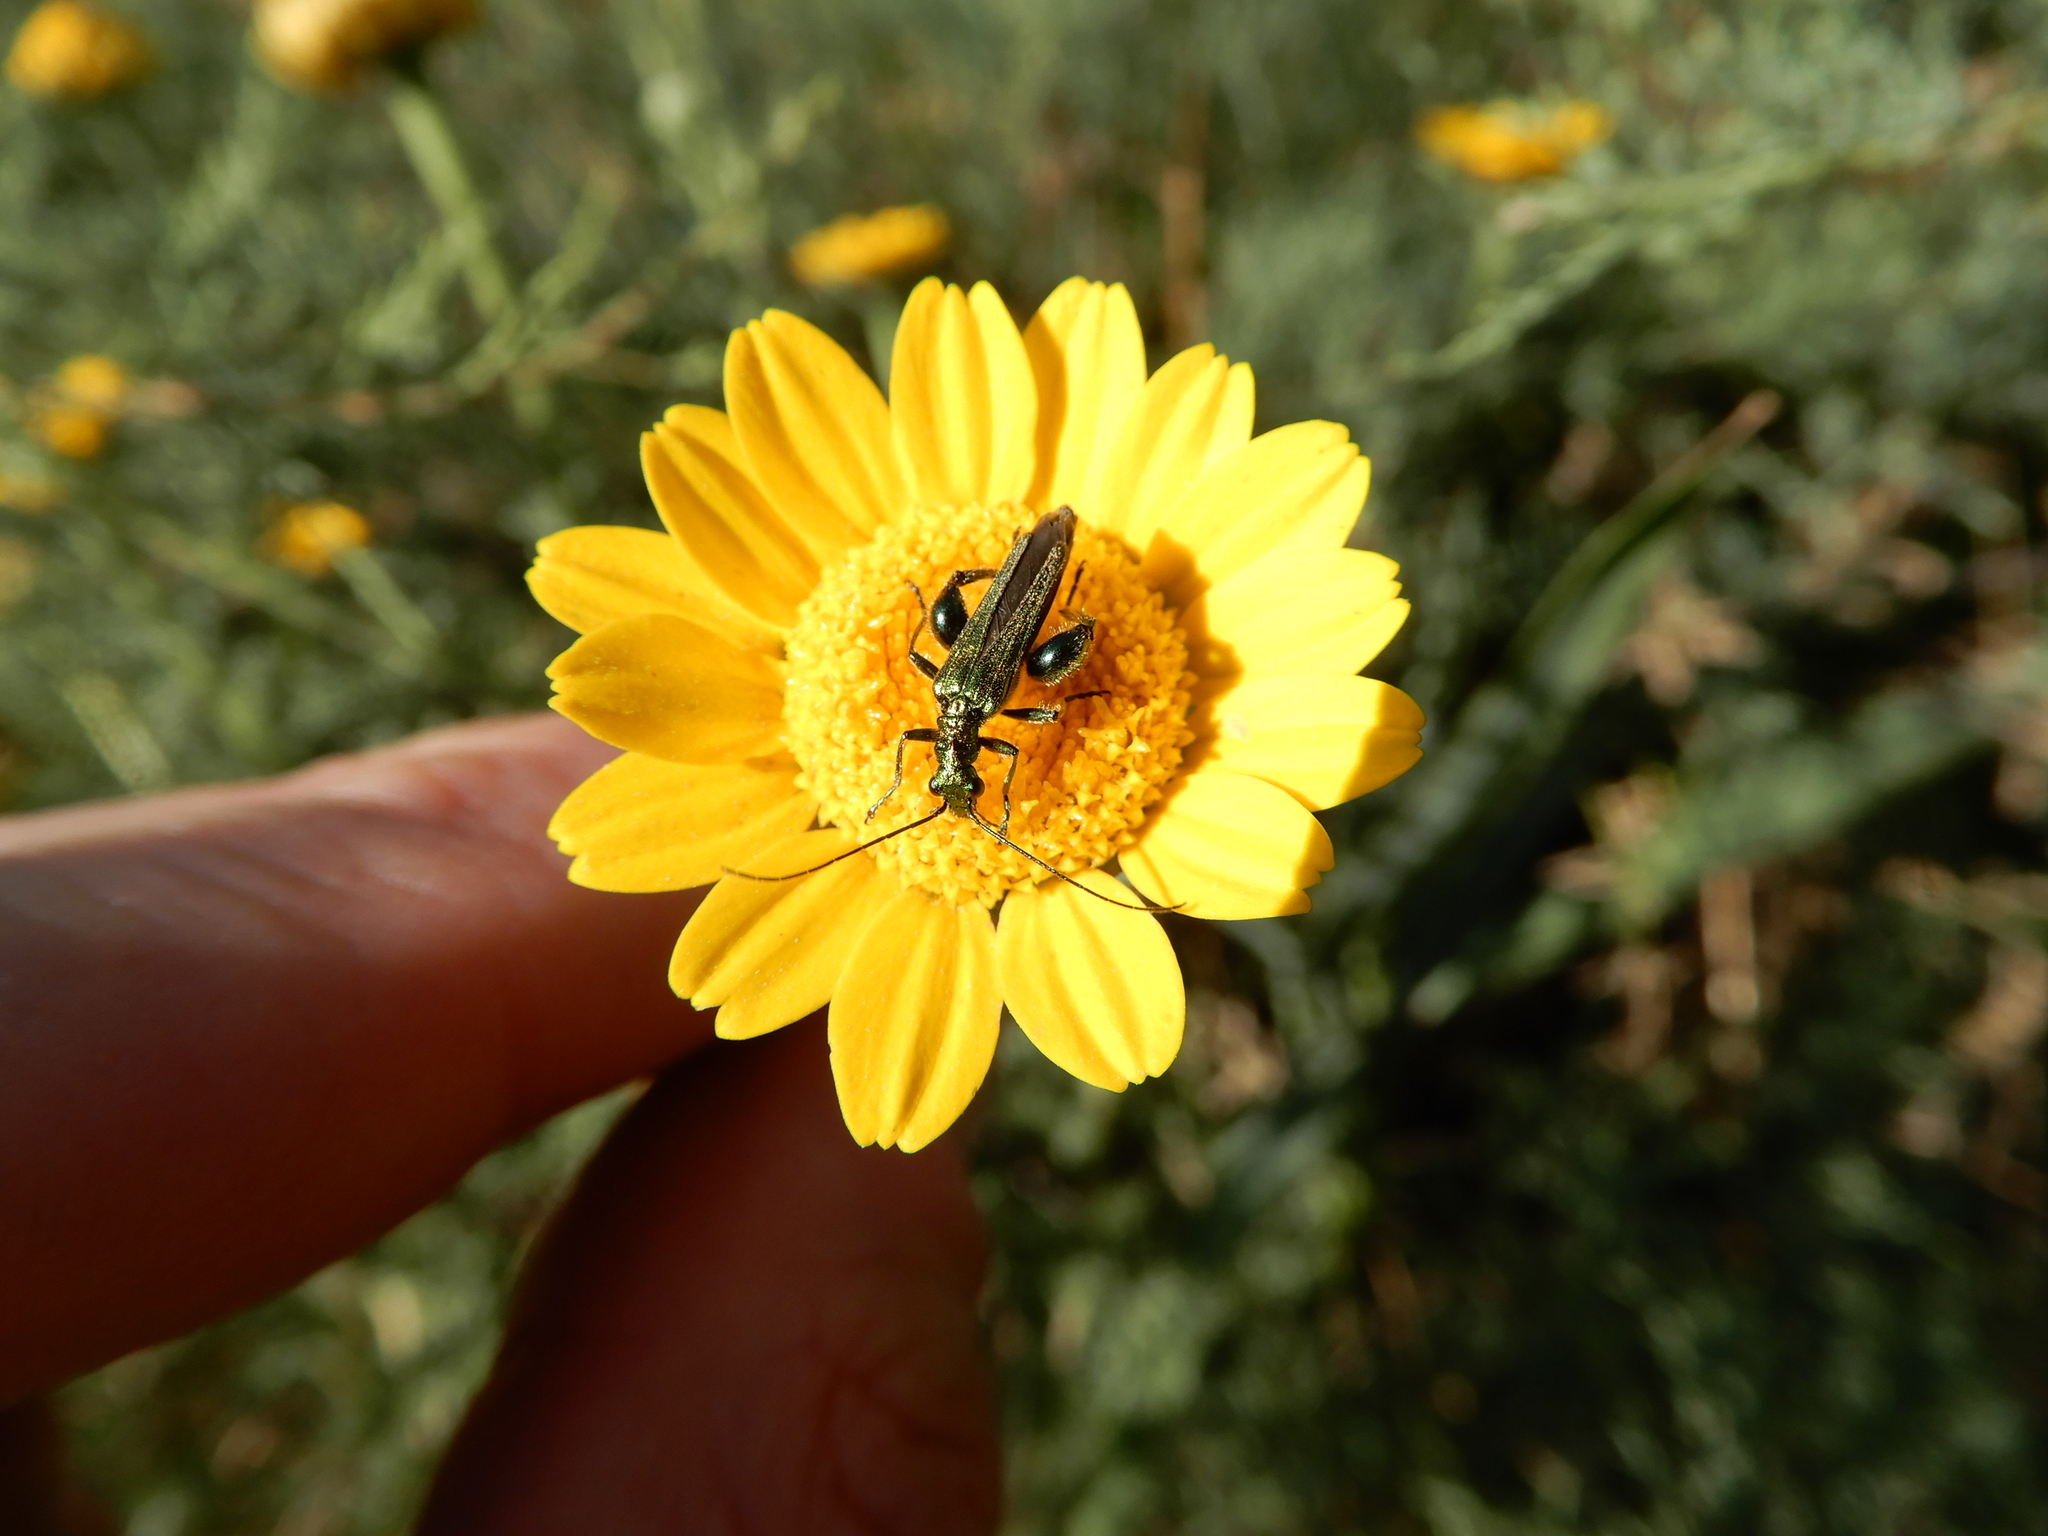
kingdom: Animalia
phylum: Arthropoda
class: Insecta
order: Coleoptera
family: Oedemeridae
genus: Oedemera
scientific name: Oedemera nobilis
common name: Swollen-thighed beetle
